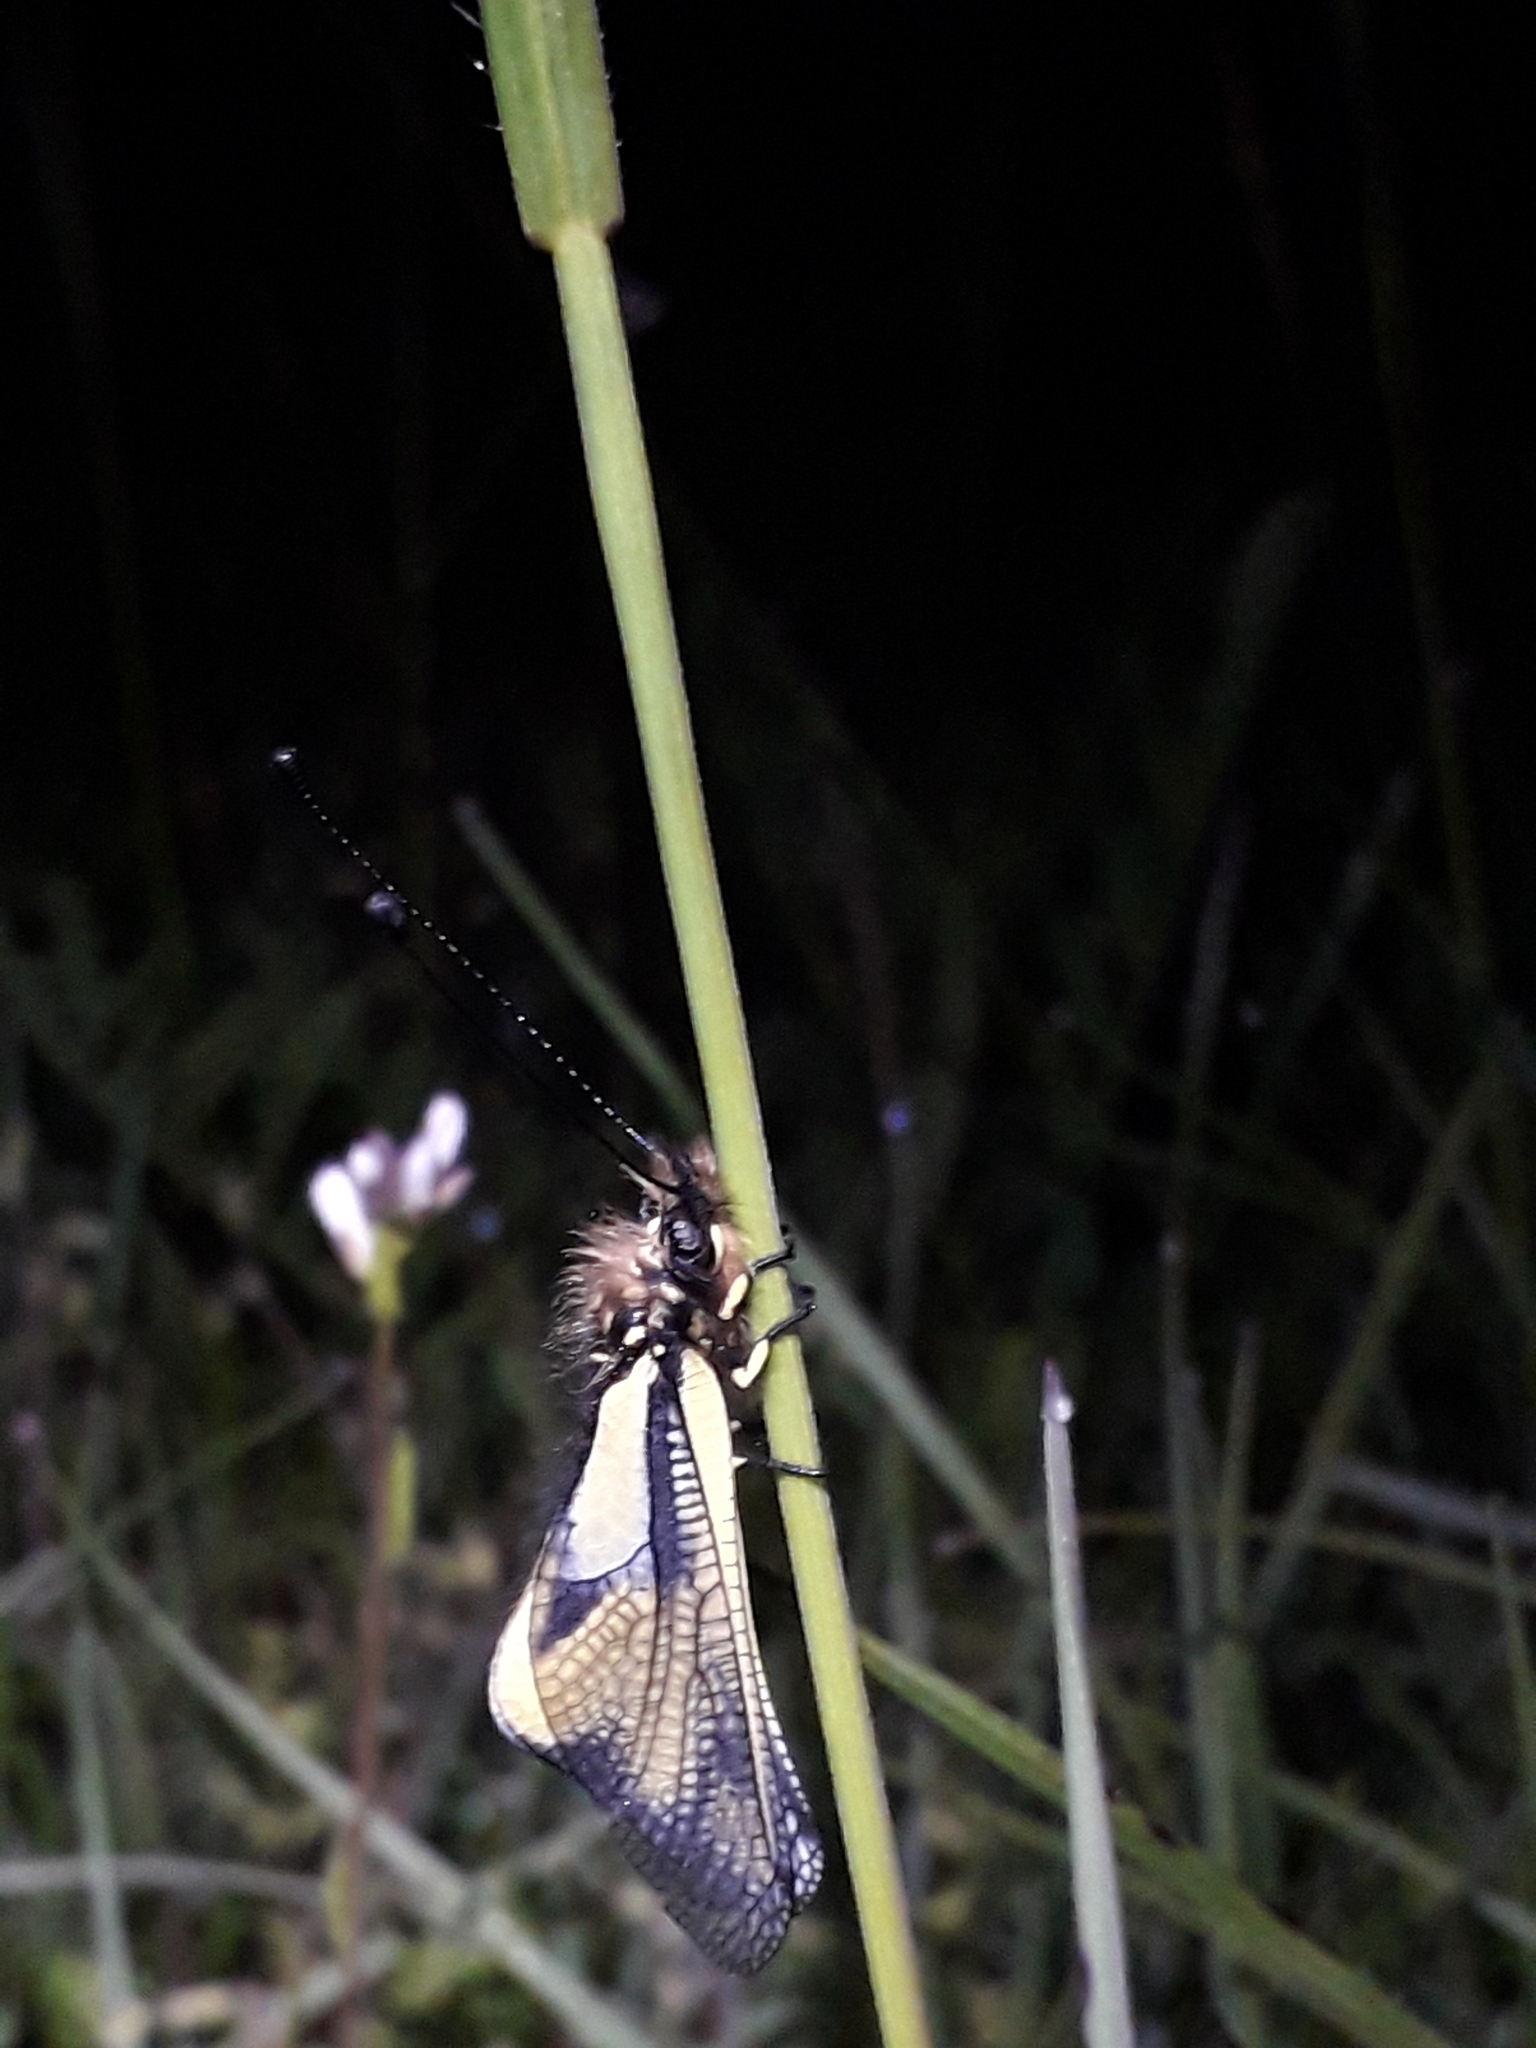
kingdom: Animalia
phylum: Arthropoda
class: Insecta
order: Neuroptera
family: Ascalaphidae
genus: Libelloides
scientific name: Libelloides coccajus
